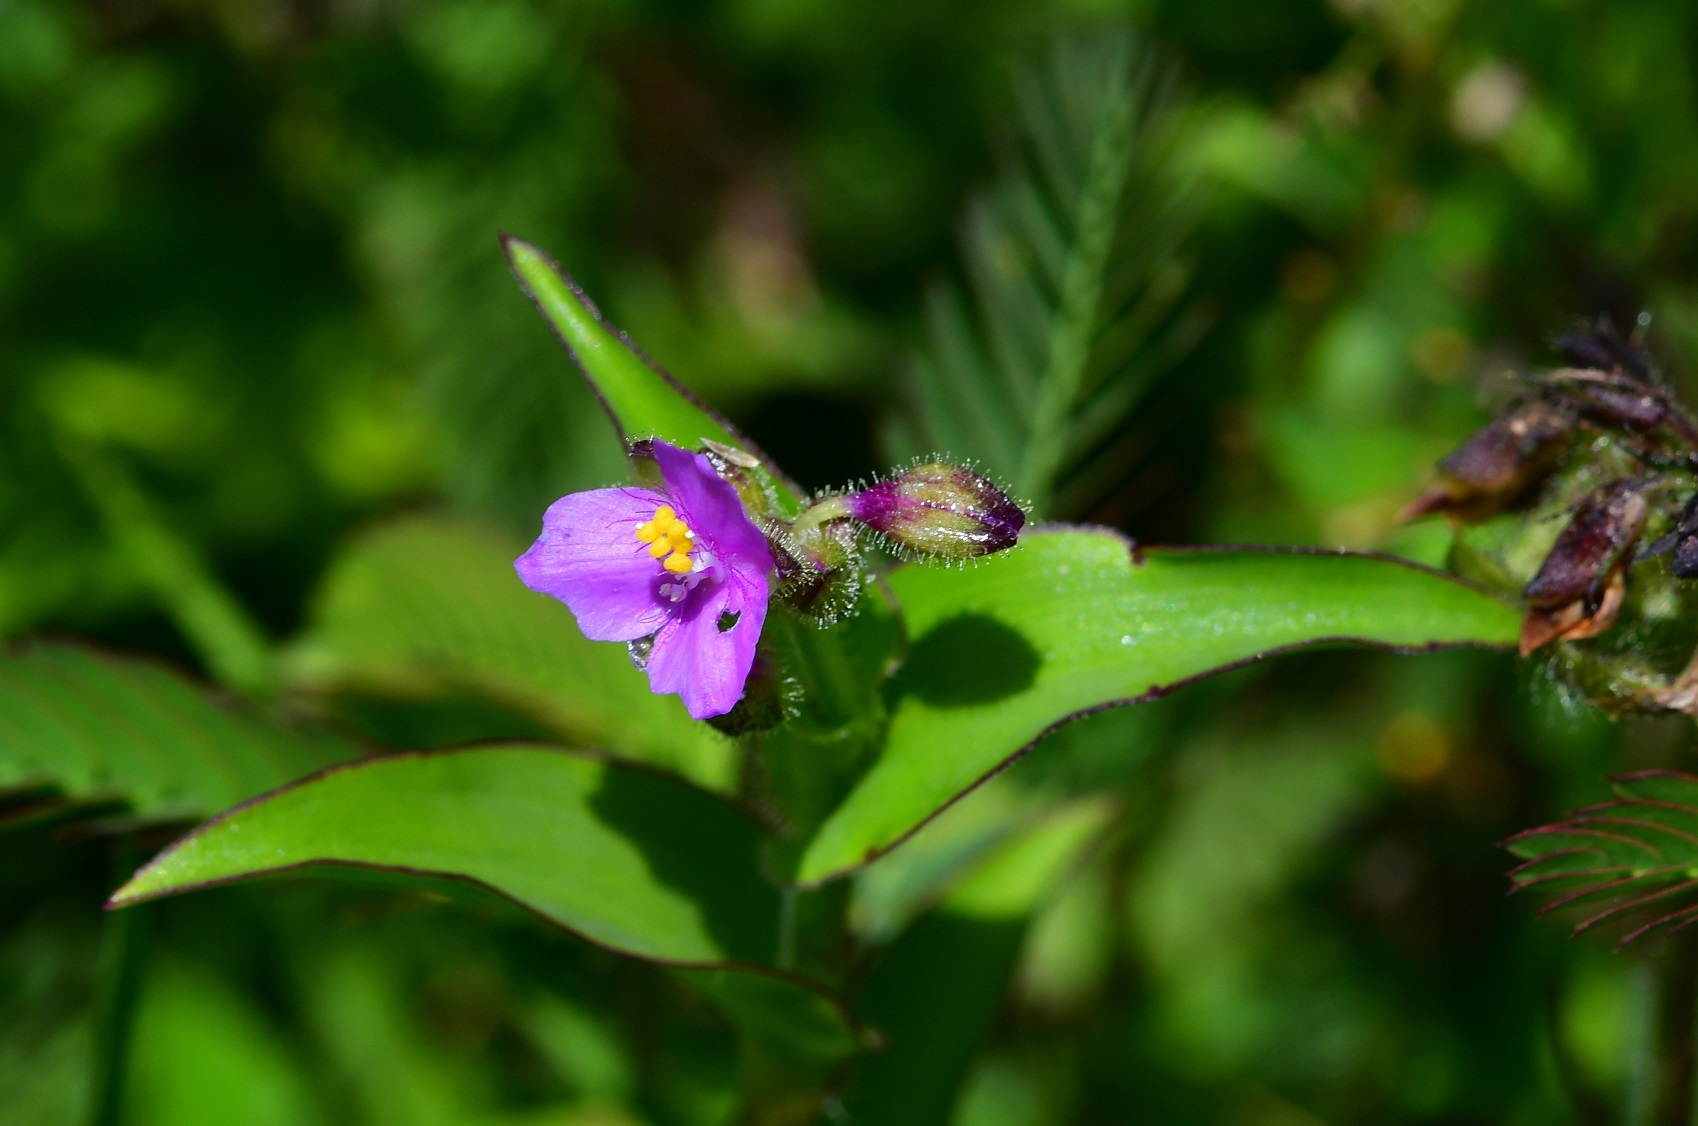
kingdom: Plantae
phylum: Tracheophyta
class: Liliopsida
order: Commelinales
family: Commelinaceae
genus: Callisia
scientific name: Callisia purpurascens
